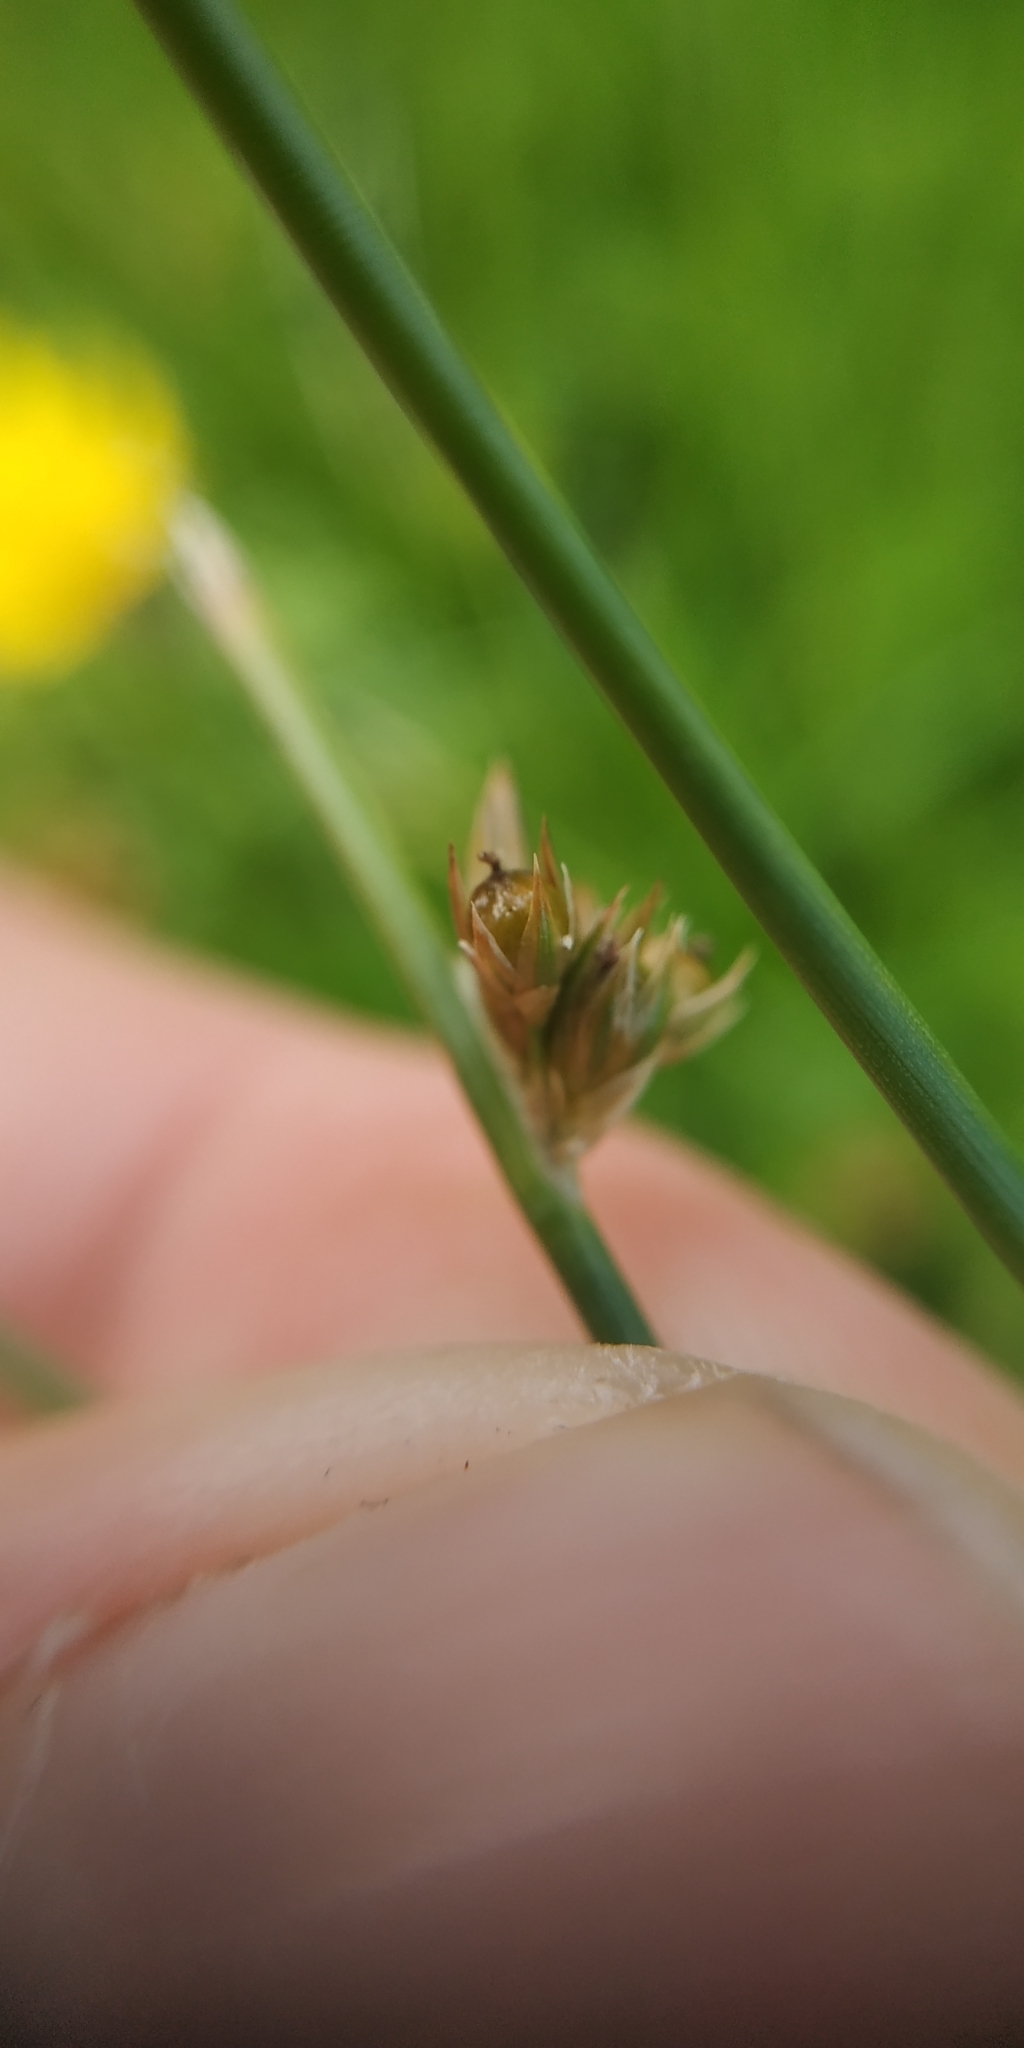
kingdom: Plantae
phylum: Tracheophyta
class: Liliopsida
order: Poales
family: Juncaceae
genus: Juncus
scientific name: Juncus filiformis
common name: Thread rush
